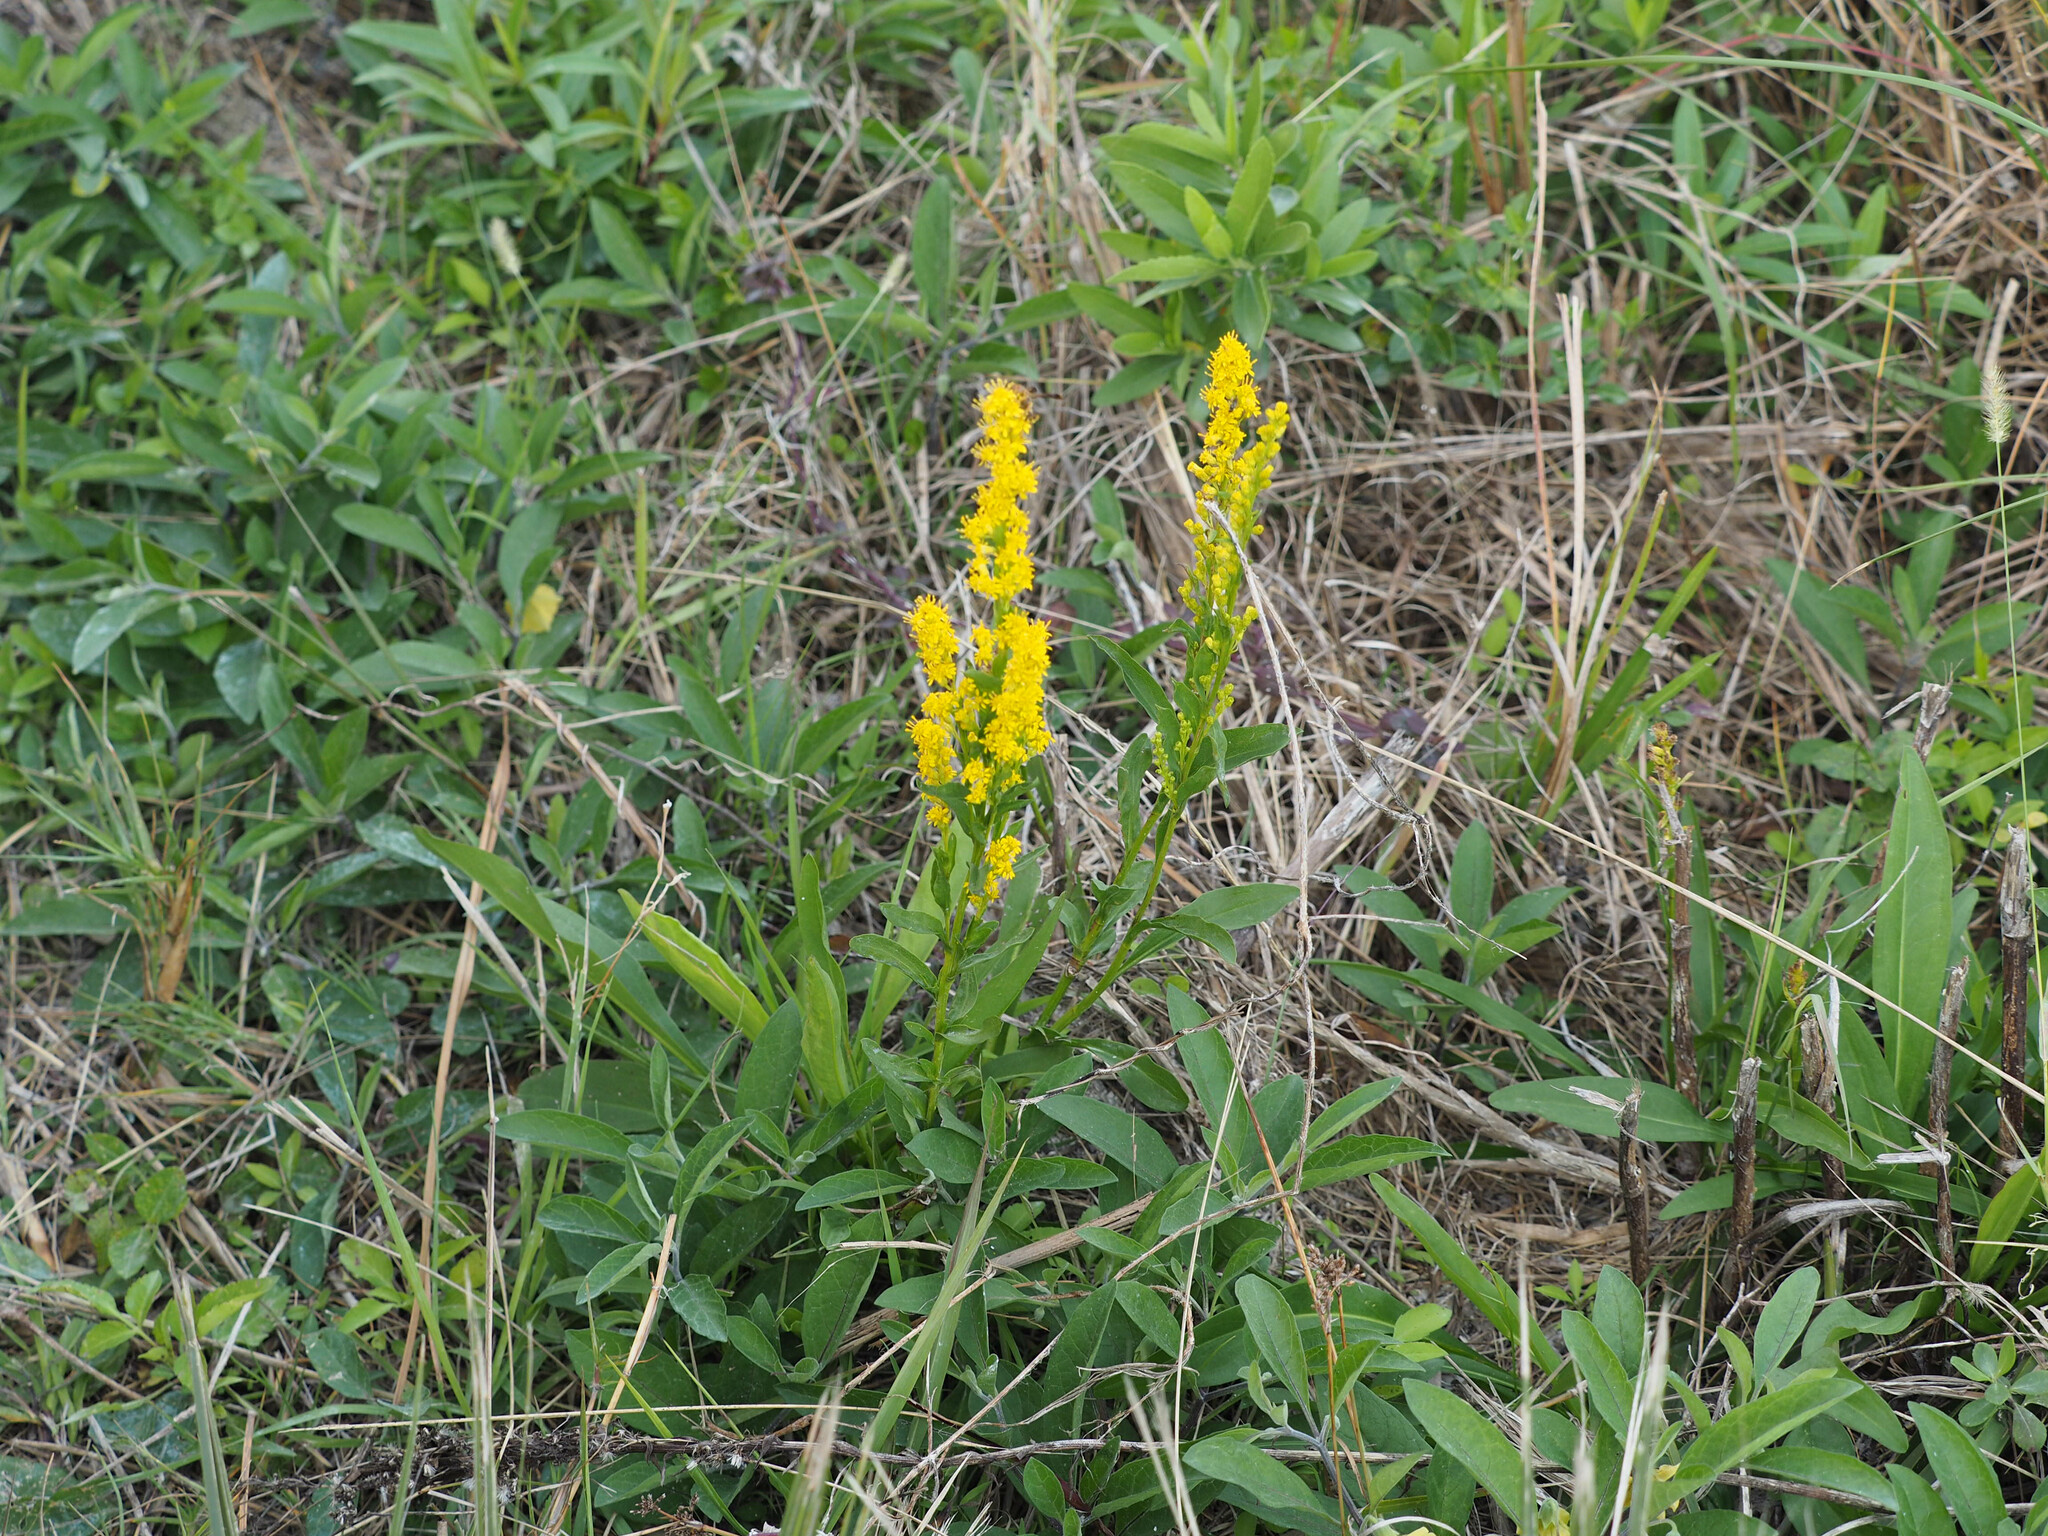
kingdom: Plantae
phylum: Tracheophyta
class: Magnoliopsida
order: Asterales
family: Asteraceae
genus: Solidago
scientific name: Solidago mexicana
